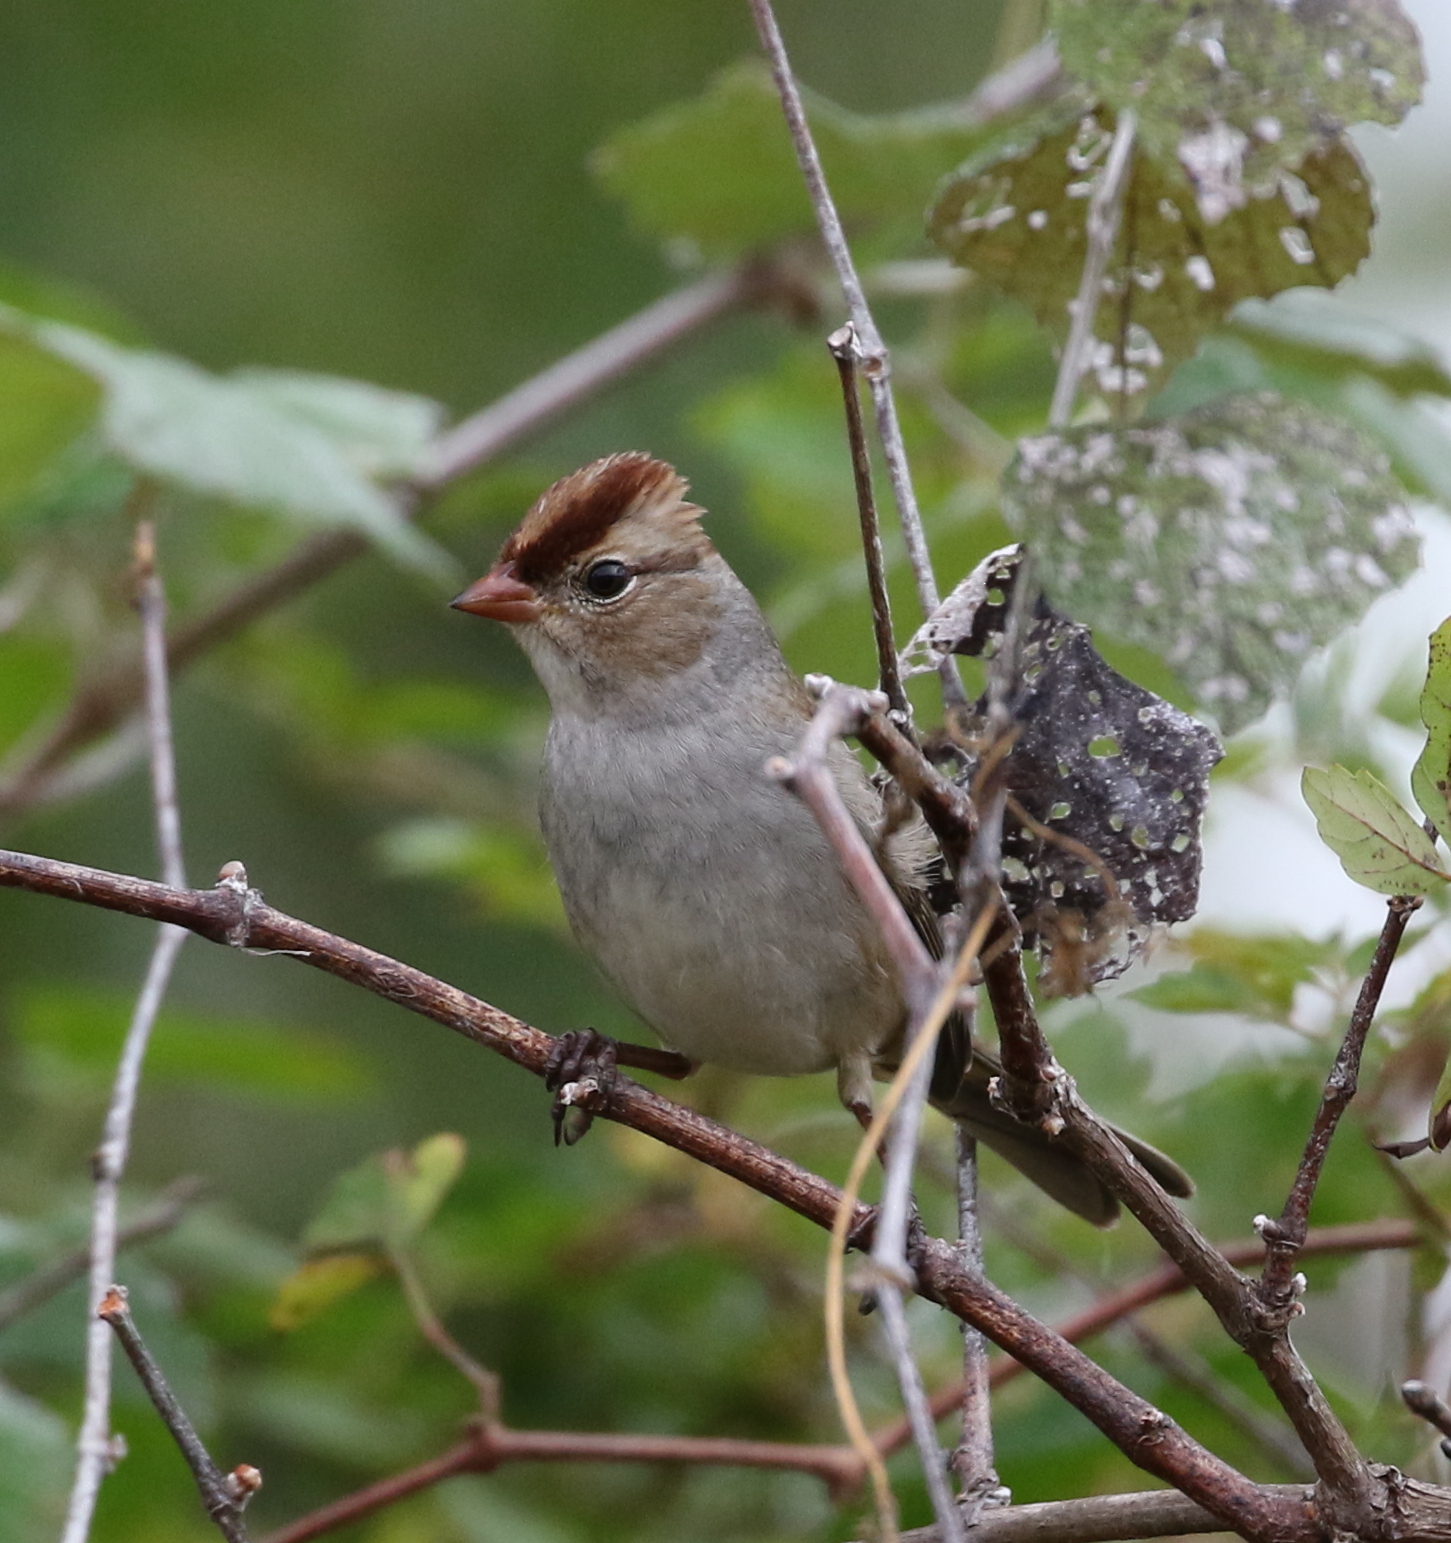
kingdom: Animalia
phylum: Chordata
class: Aves
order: Passeriformes
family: Passerellidae
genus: Zonotrichia
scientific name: Zonotrichia leucophrys
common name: White-crowned sparrow
